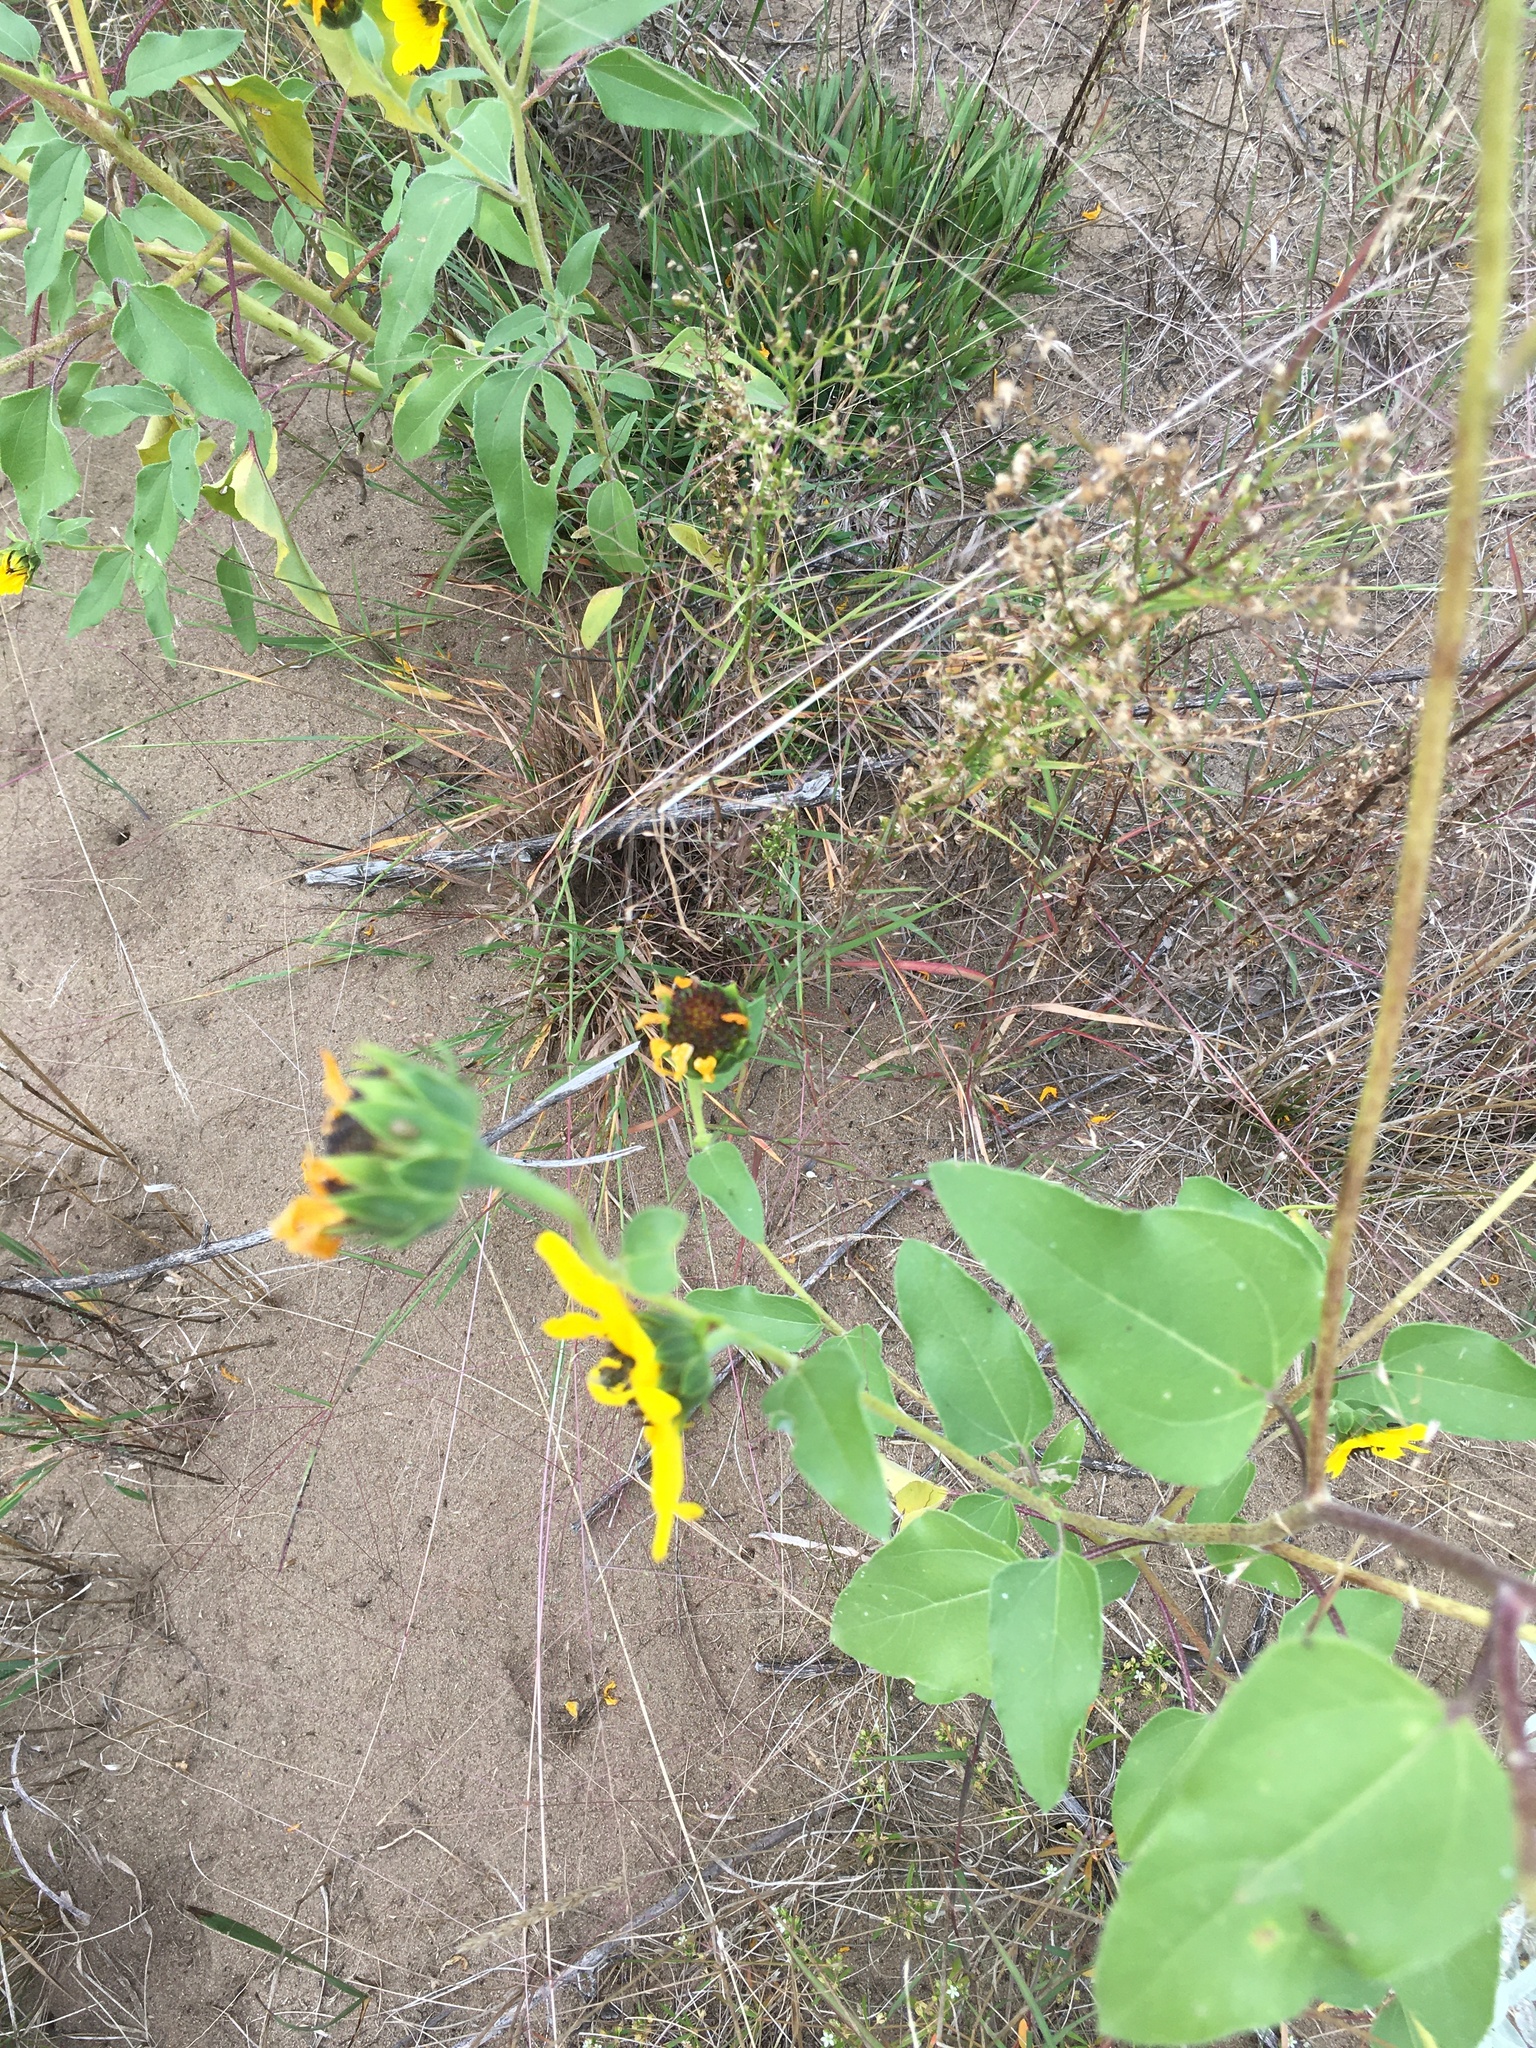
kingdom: Plantae
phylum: Tracheophyta
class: Magnoliopsida
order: Asterales
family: Asteraceae
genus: Helianthus
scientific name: Helianthus petiolaris
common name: Lesser sunflower
